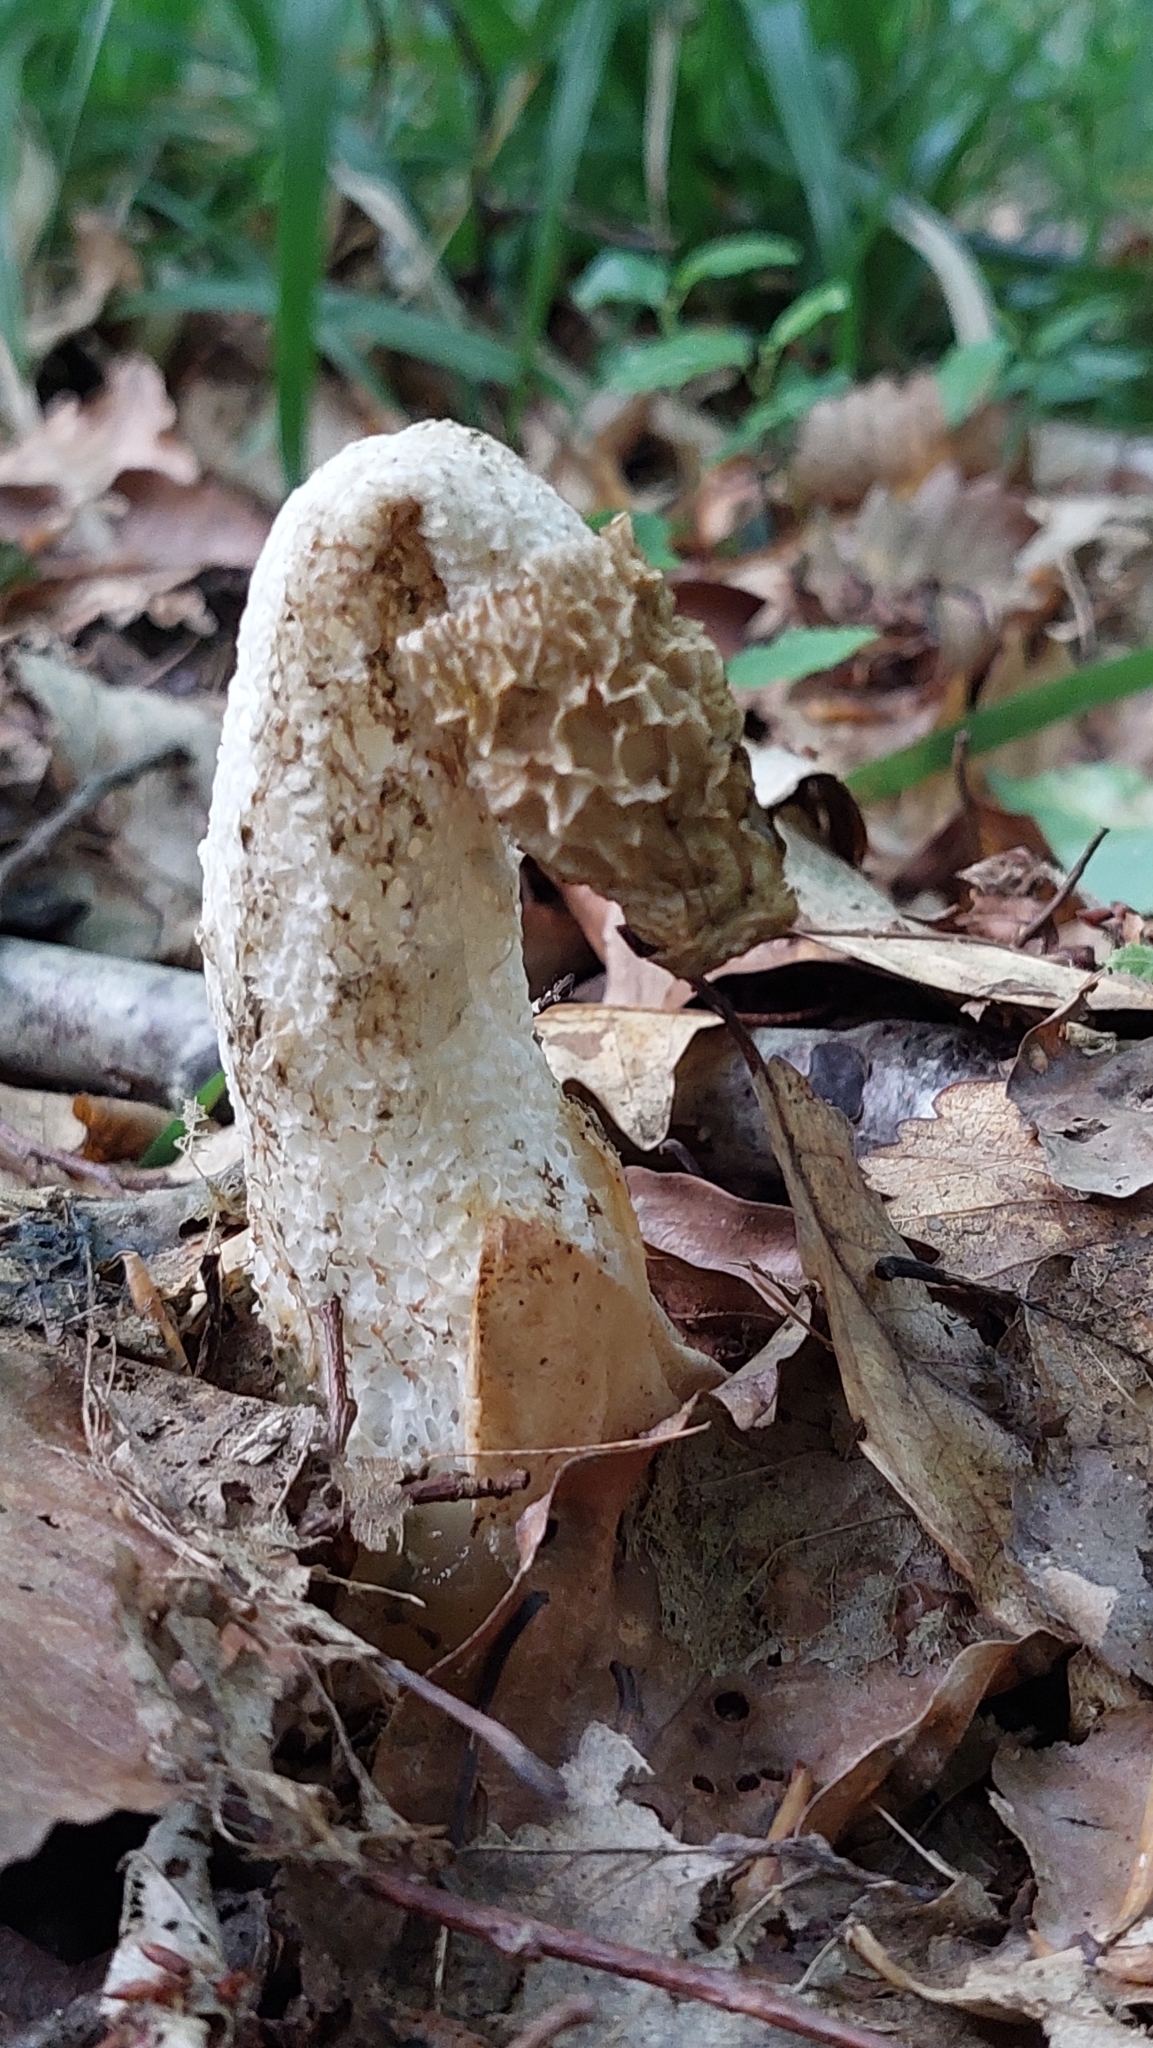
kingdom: Fungi
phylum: Basidiomycota
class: Agaricomycetes
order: Phallales
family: Phallaceae
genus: Phallus
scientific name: Phallus impudicus
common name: Common stinkhorn
